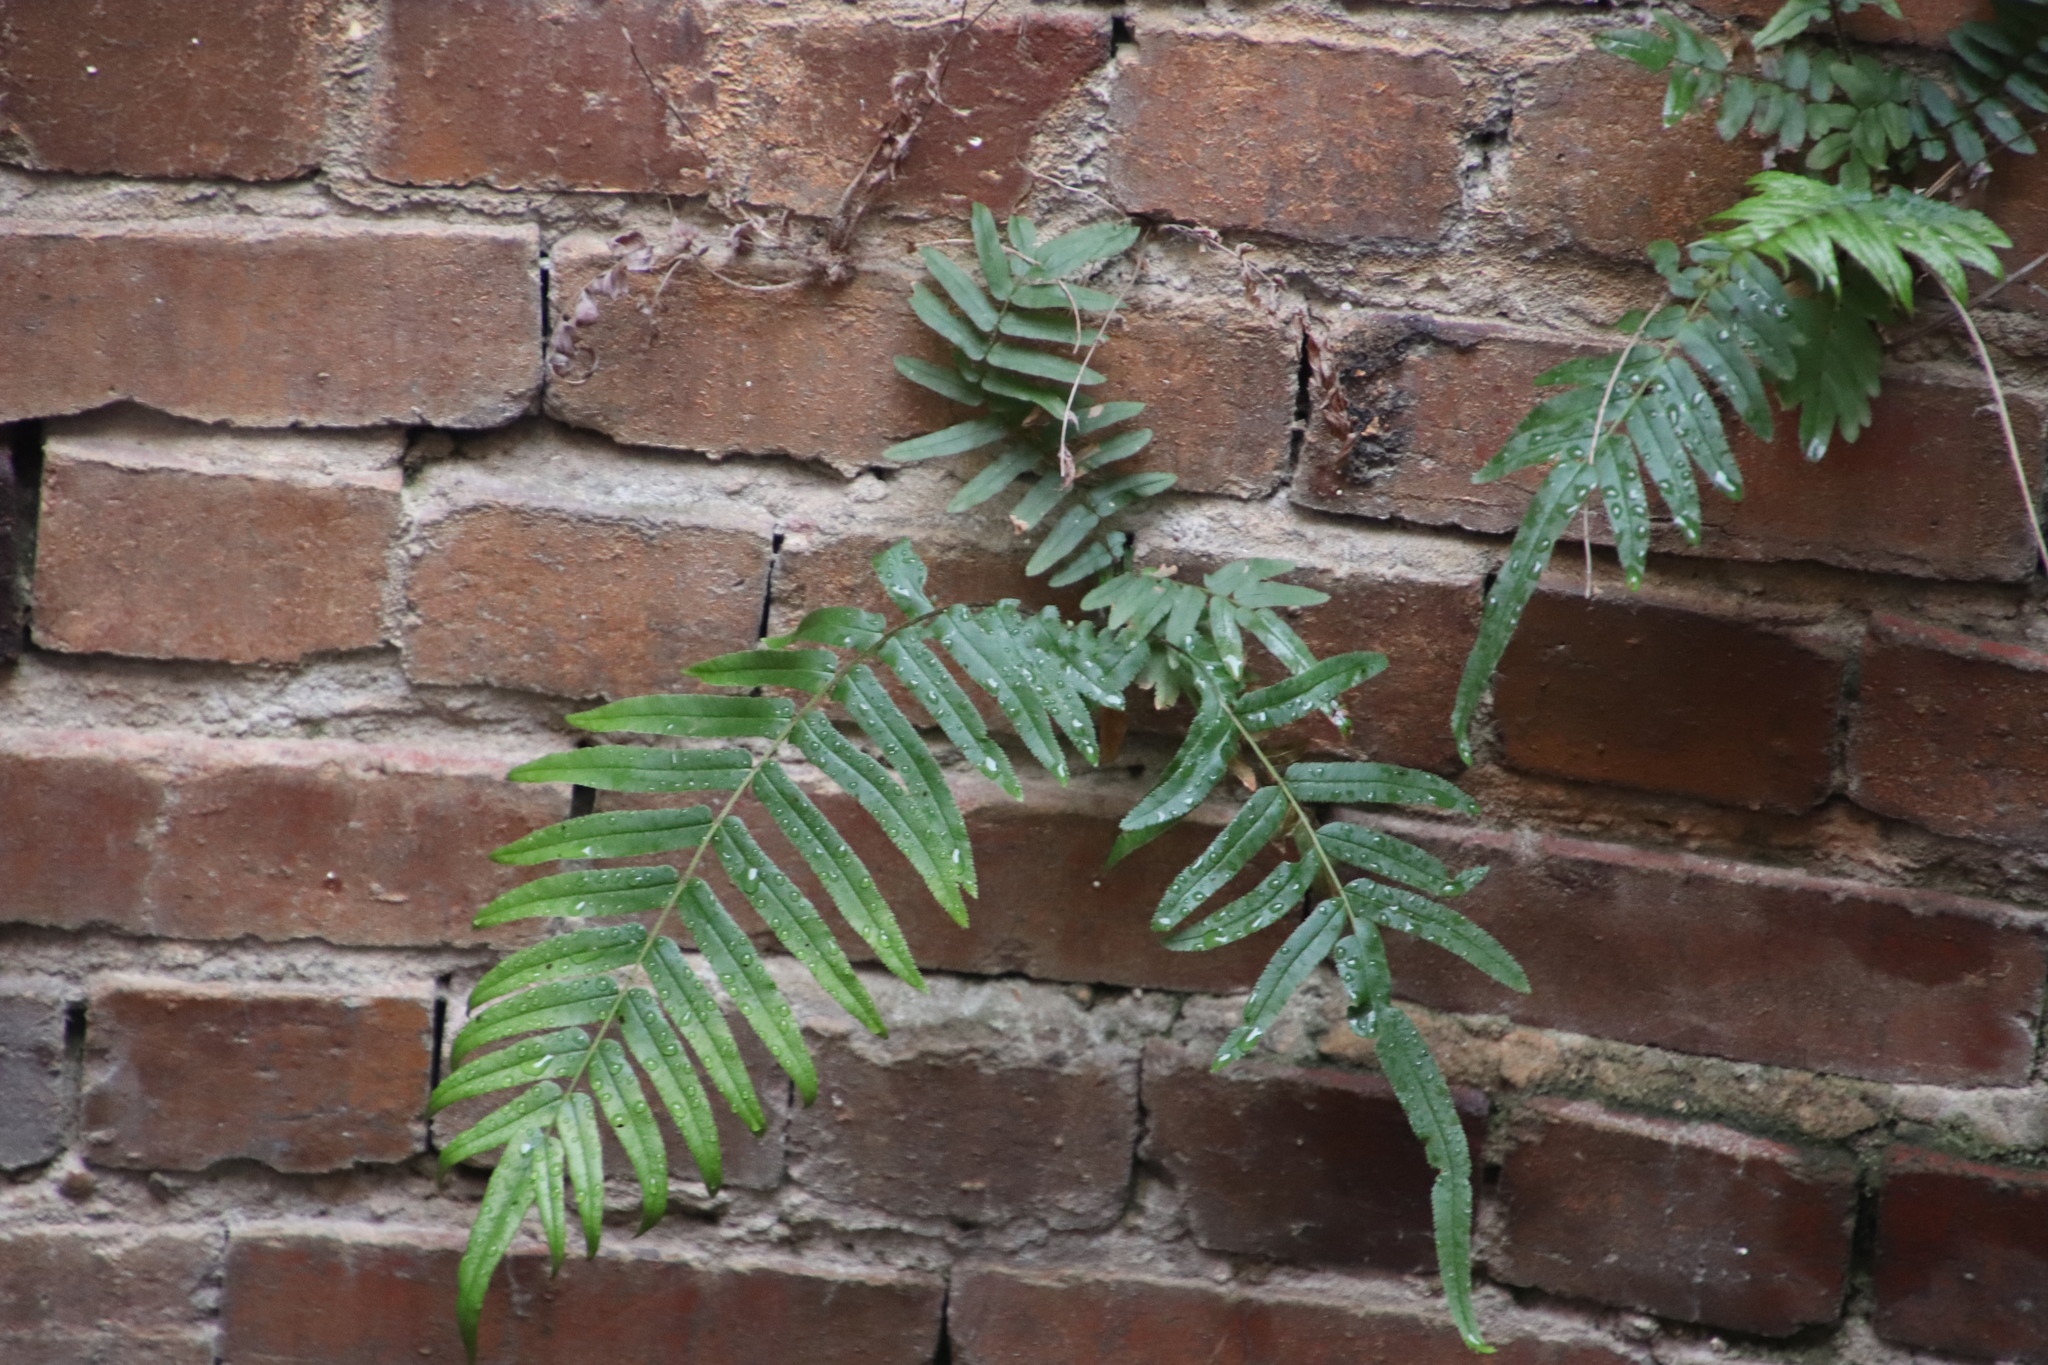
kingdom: Plantae
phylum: Tracheophyta
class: Polypodiopsida
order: Polypodiales
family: Pteridaceae
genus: Pteris
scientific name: Pteris vittata
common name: Ladder brake
